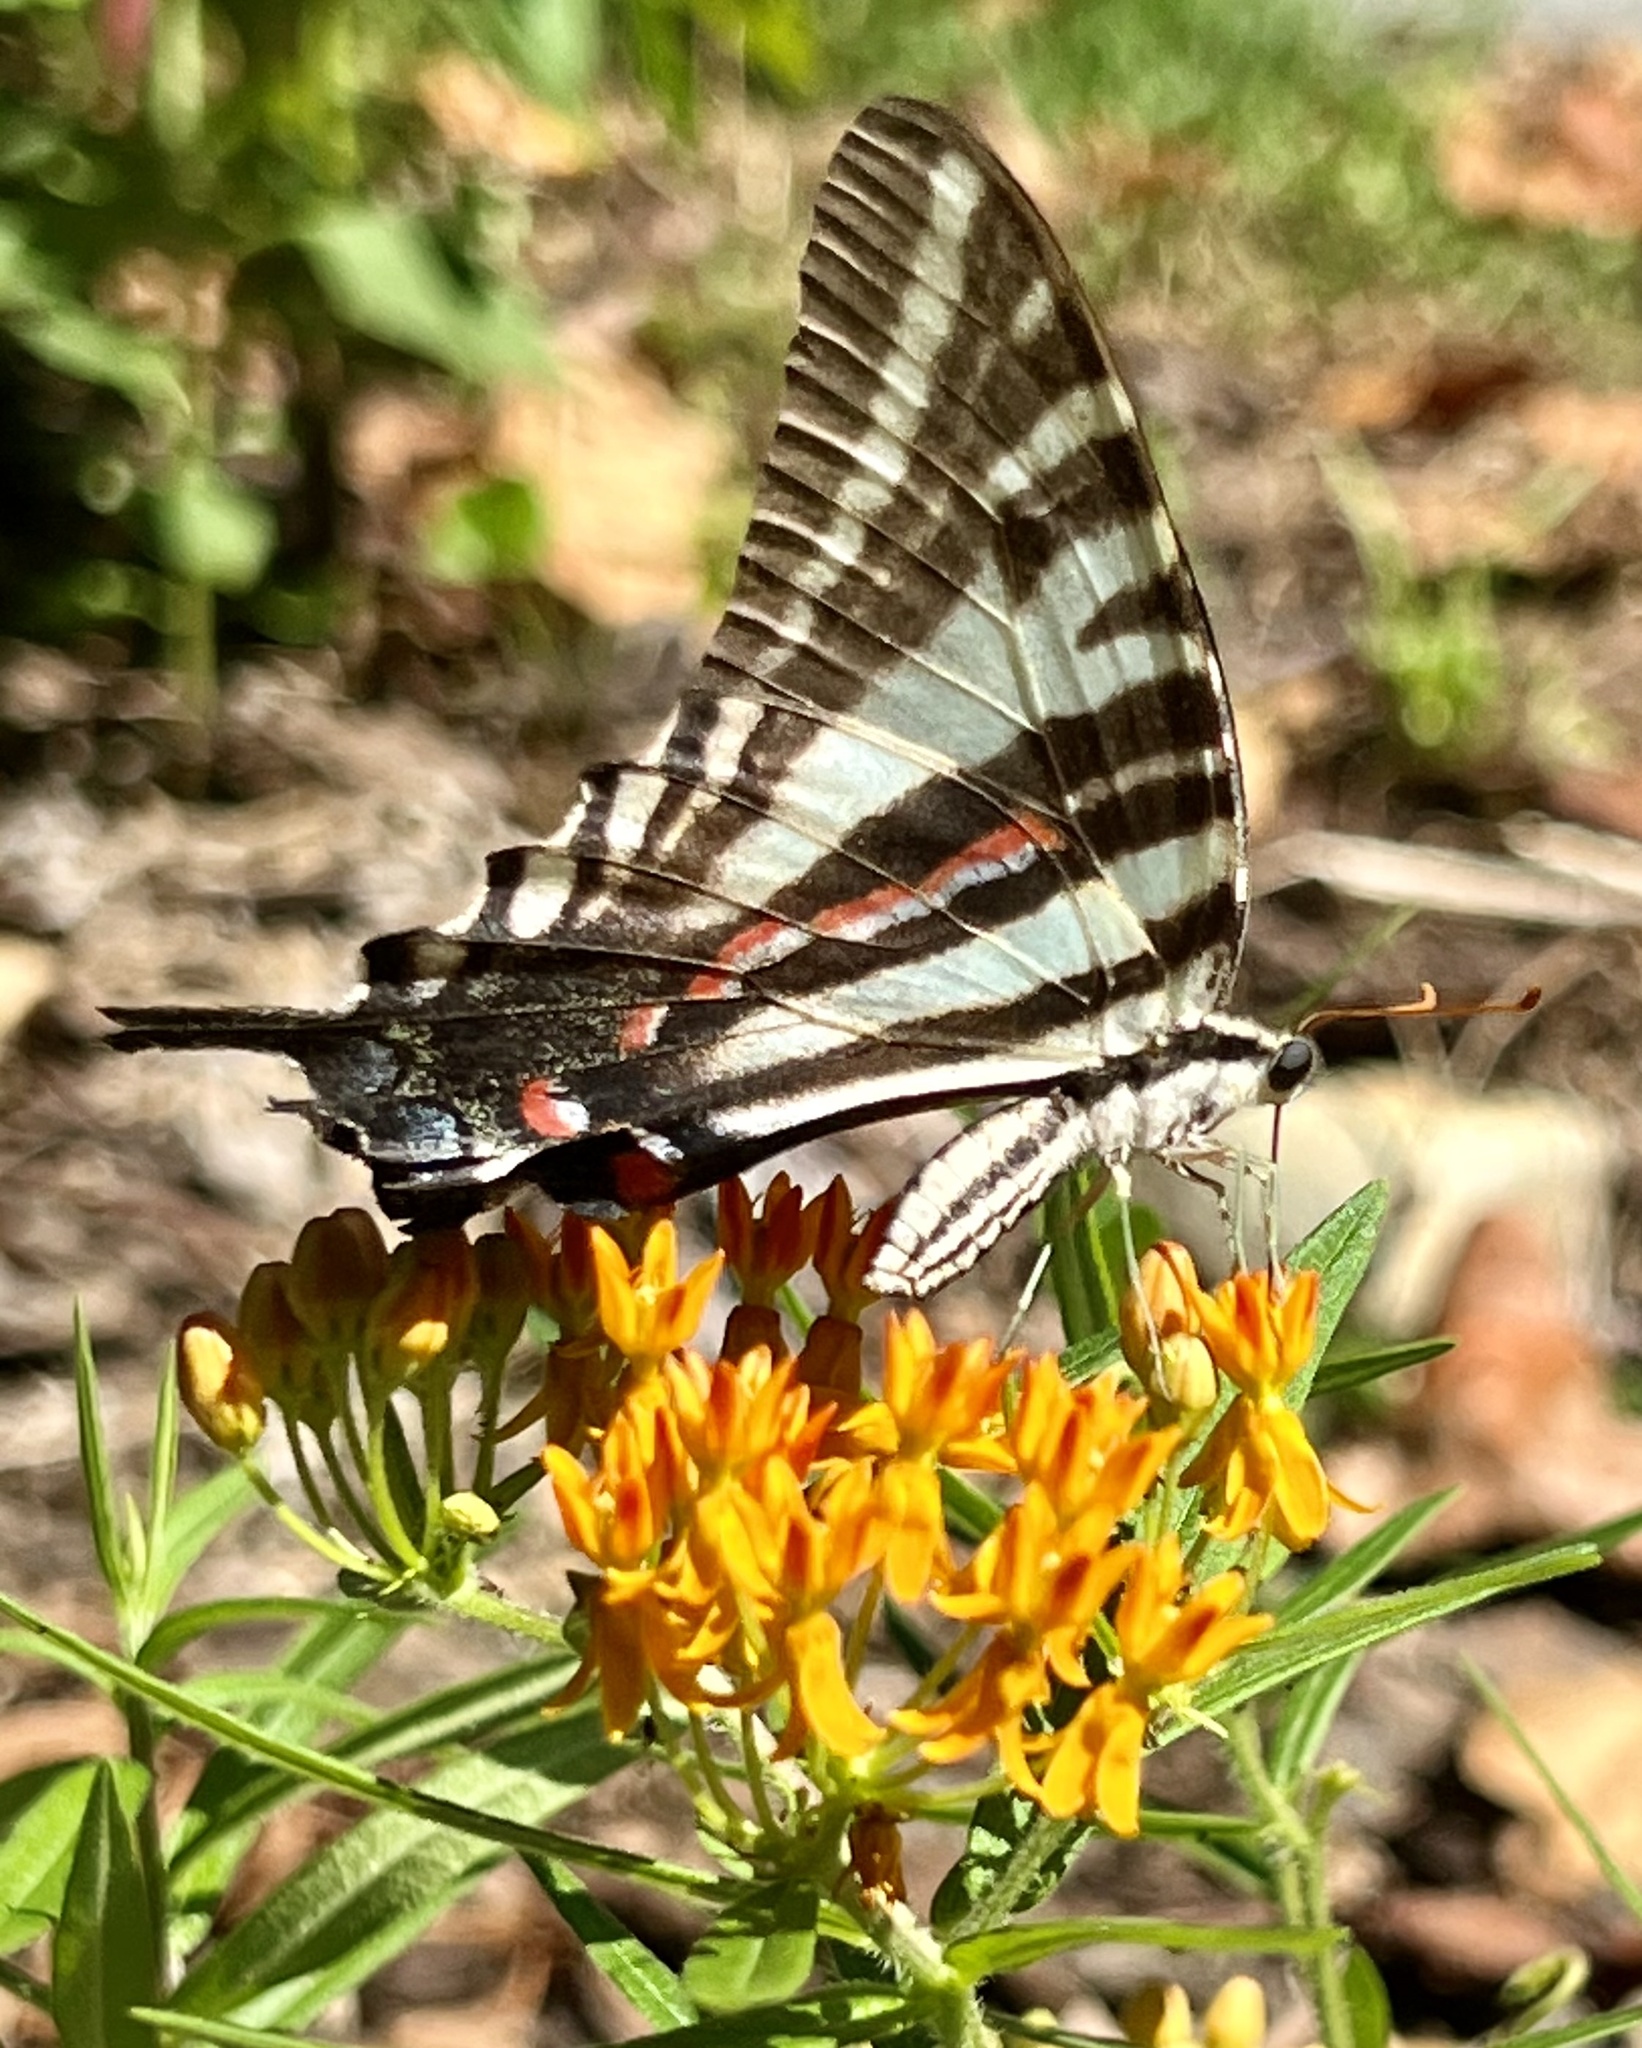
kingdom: Animalia
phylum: Arthropoda
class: Insecta
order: Lepidoptera
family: Papilionidae
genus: Protographium
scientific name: Protographium marcellus
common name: Zebra swallowtail
